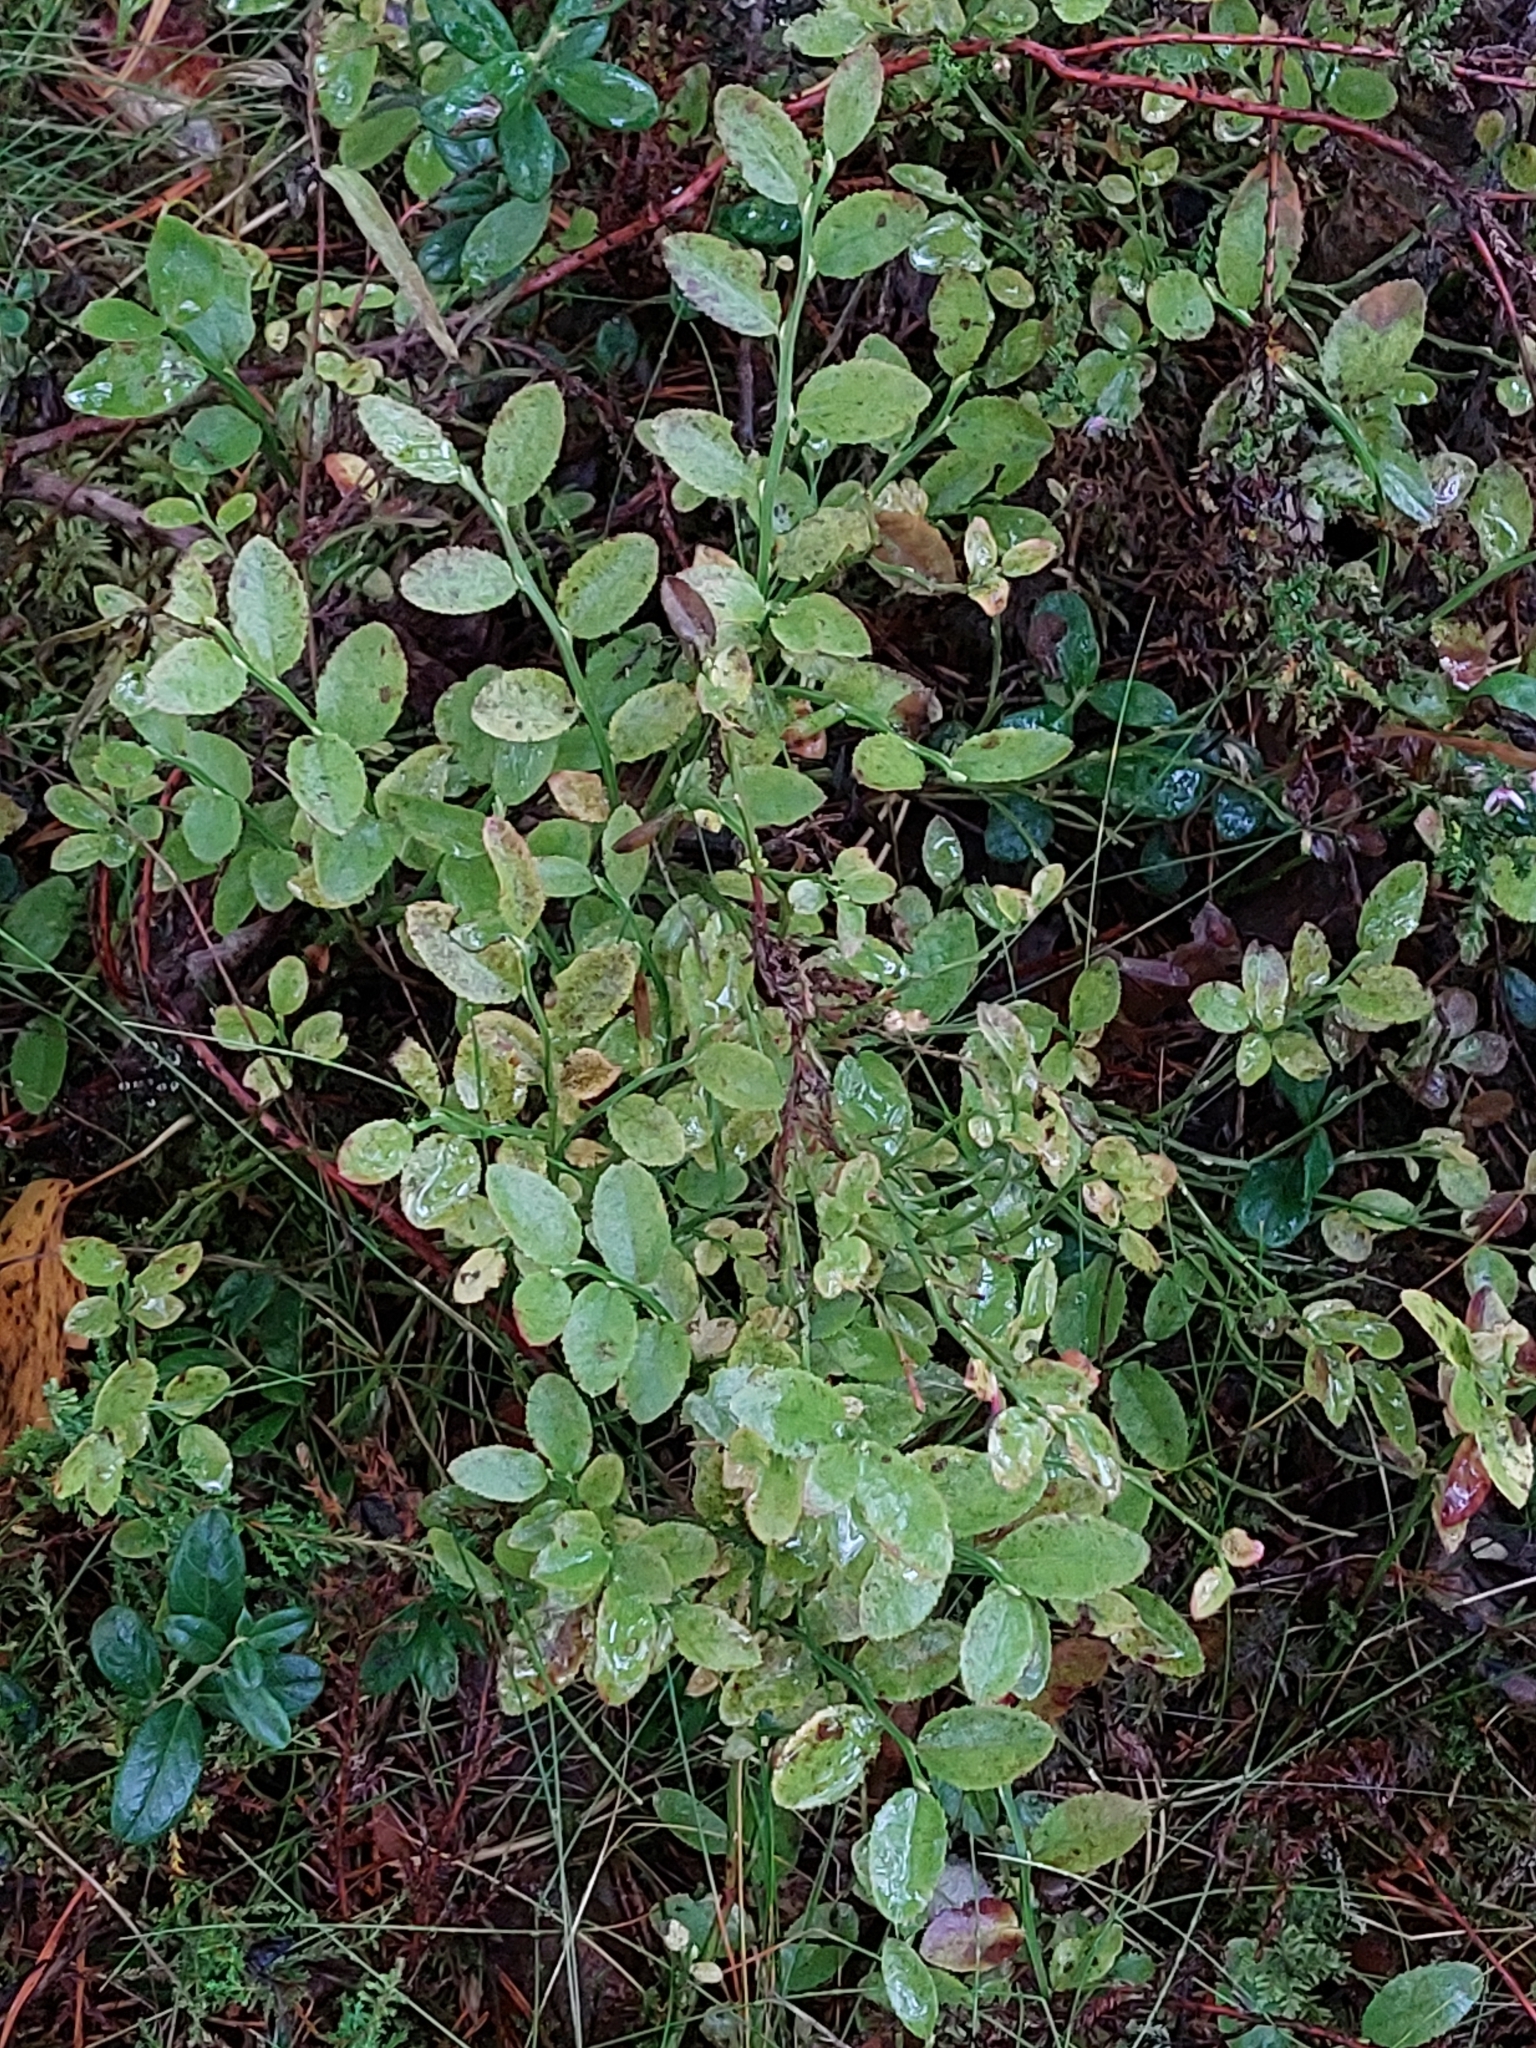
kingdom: Plantae
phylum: Tracheophyta
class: Magnoliopsida
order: Ericales
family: Ericaceae
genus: Vaccinium
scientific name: Vaccinium myrtillus
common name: Bilberry
